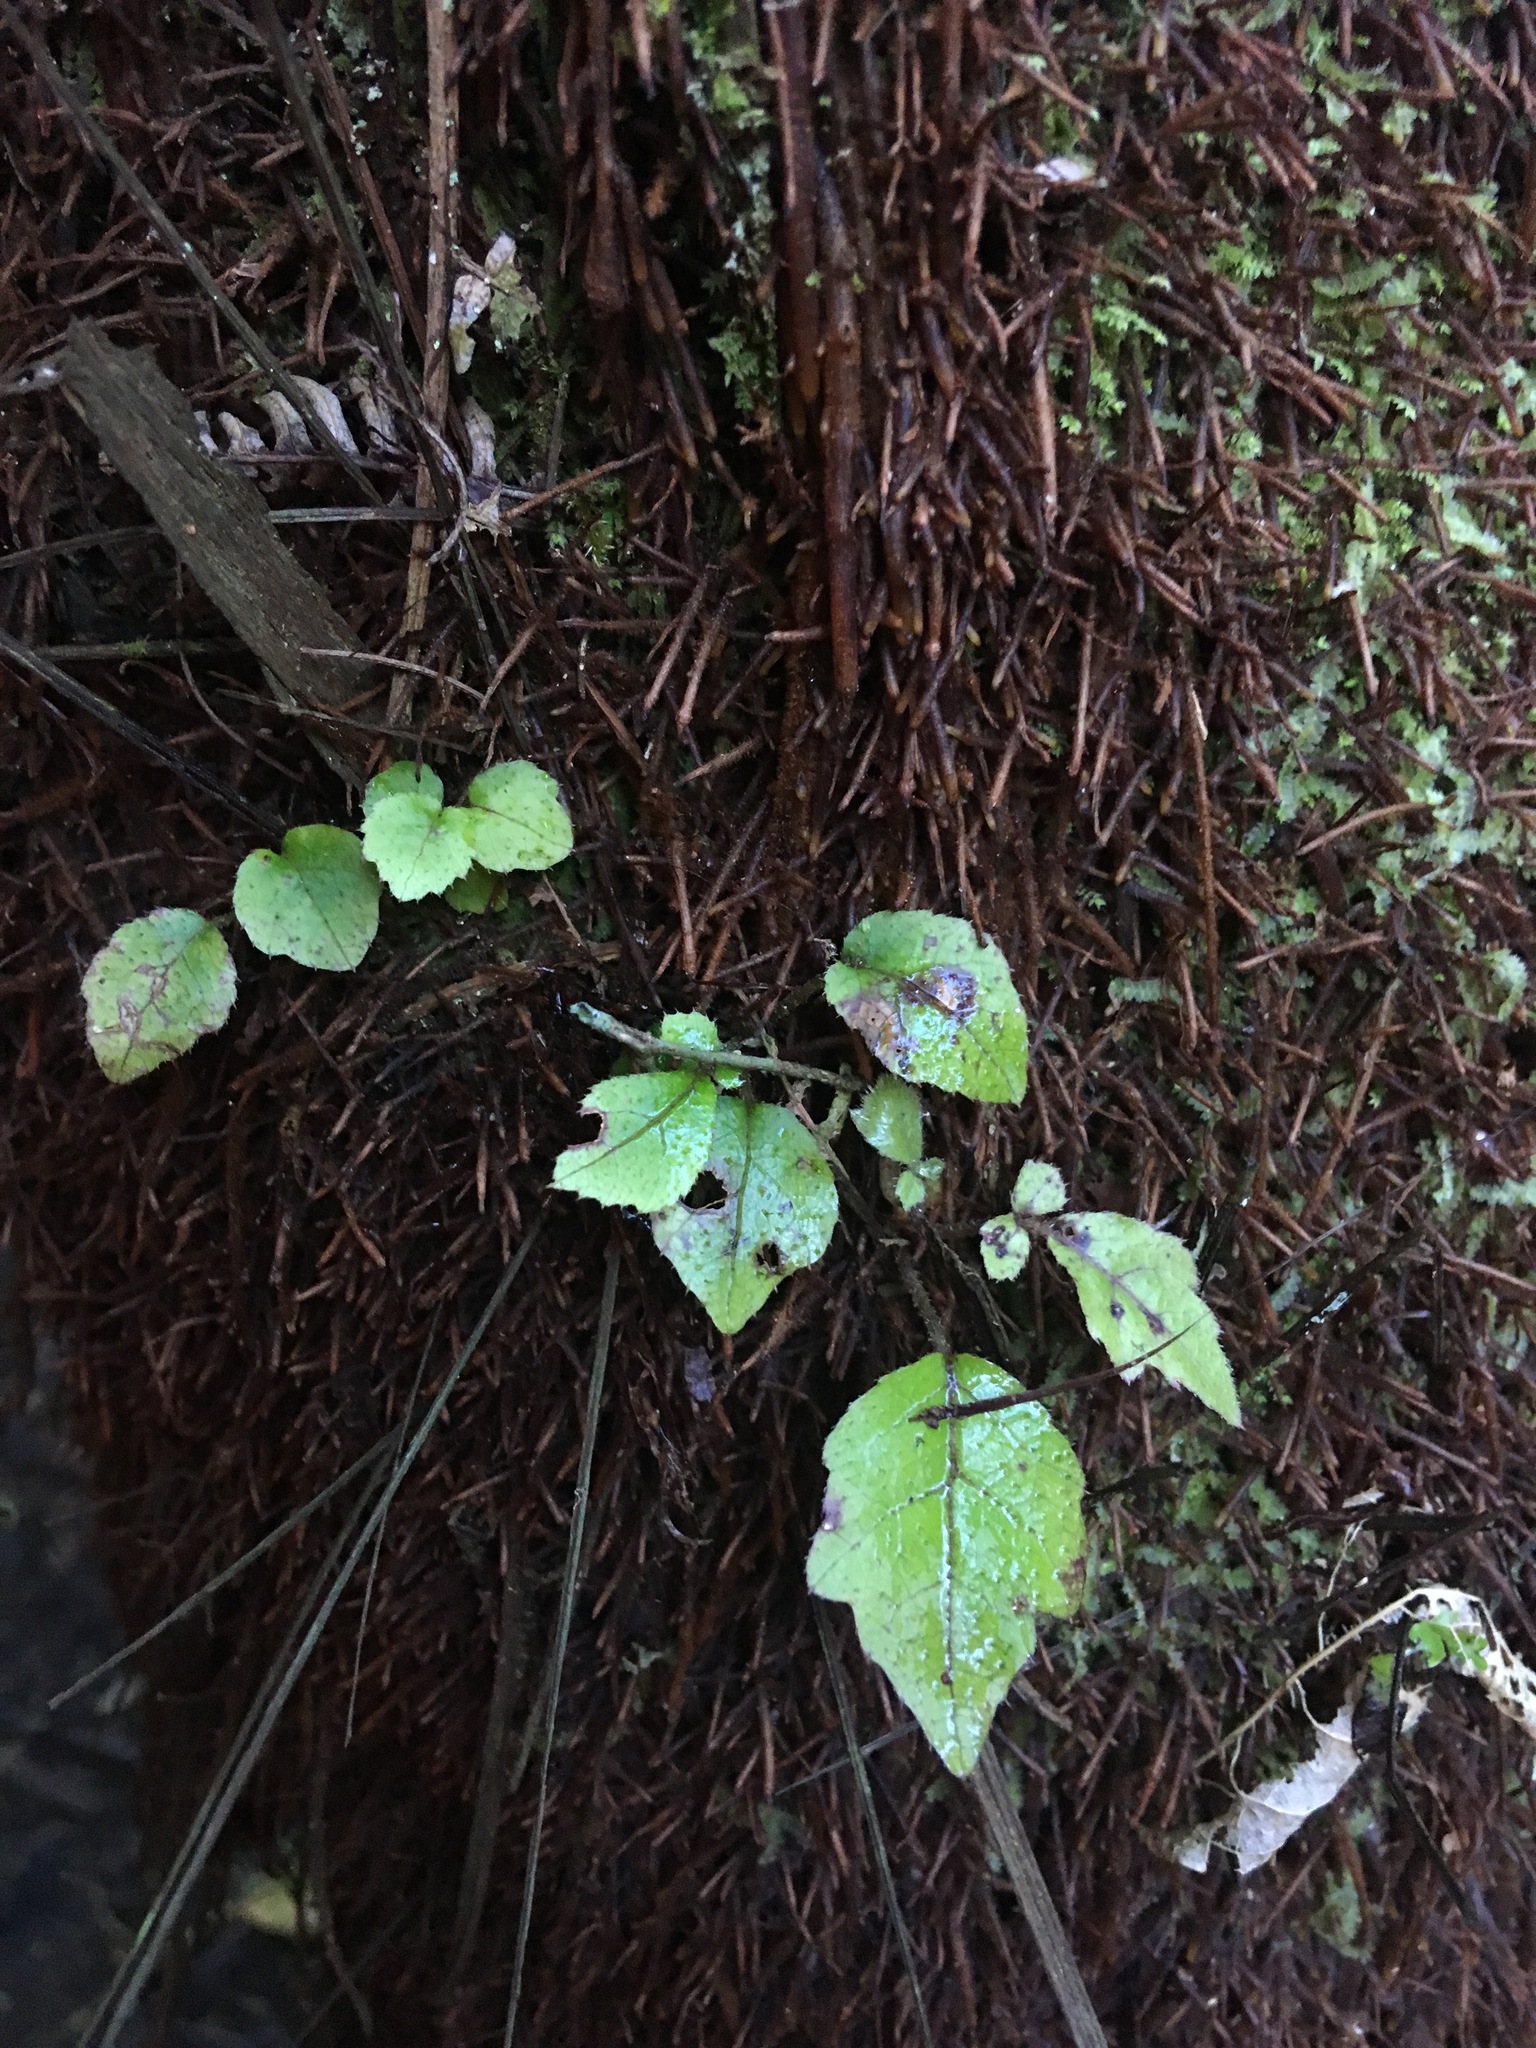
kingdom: Plantae
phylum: Tracheophyta
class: Magnoliopsida
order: Apiales
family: Araliaceae
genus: Schefflera
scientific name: Schefflera digitata
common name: Pate
